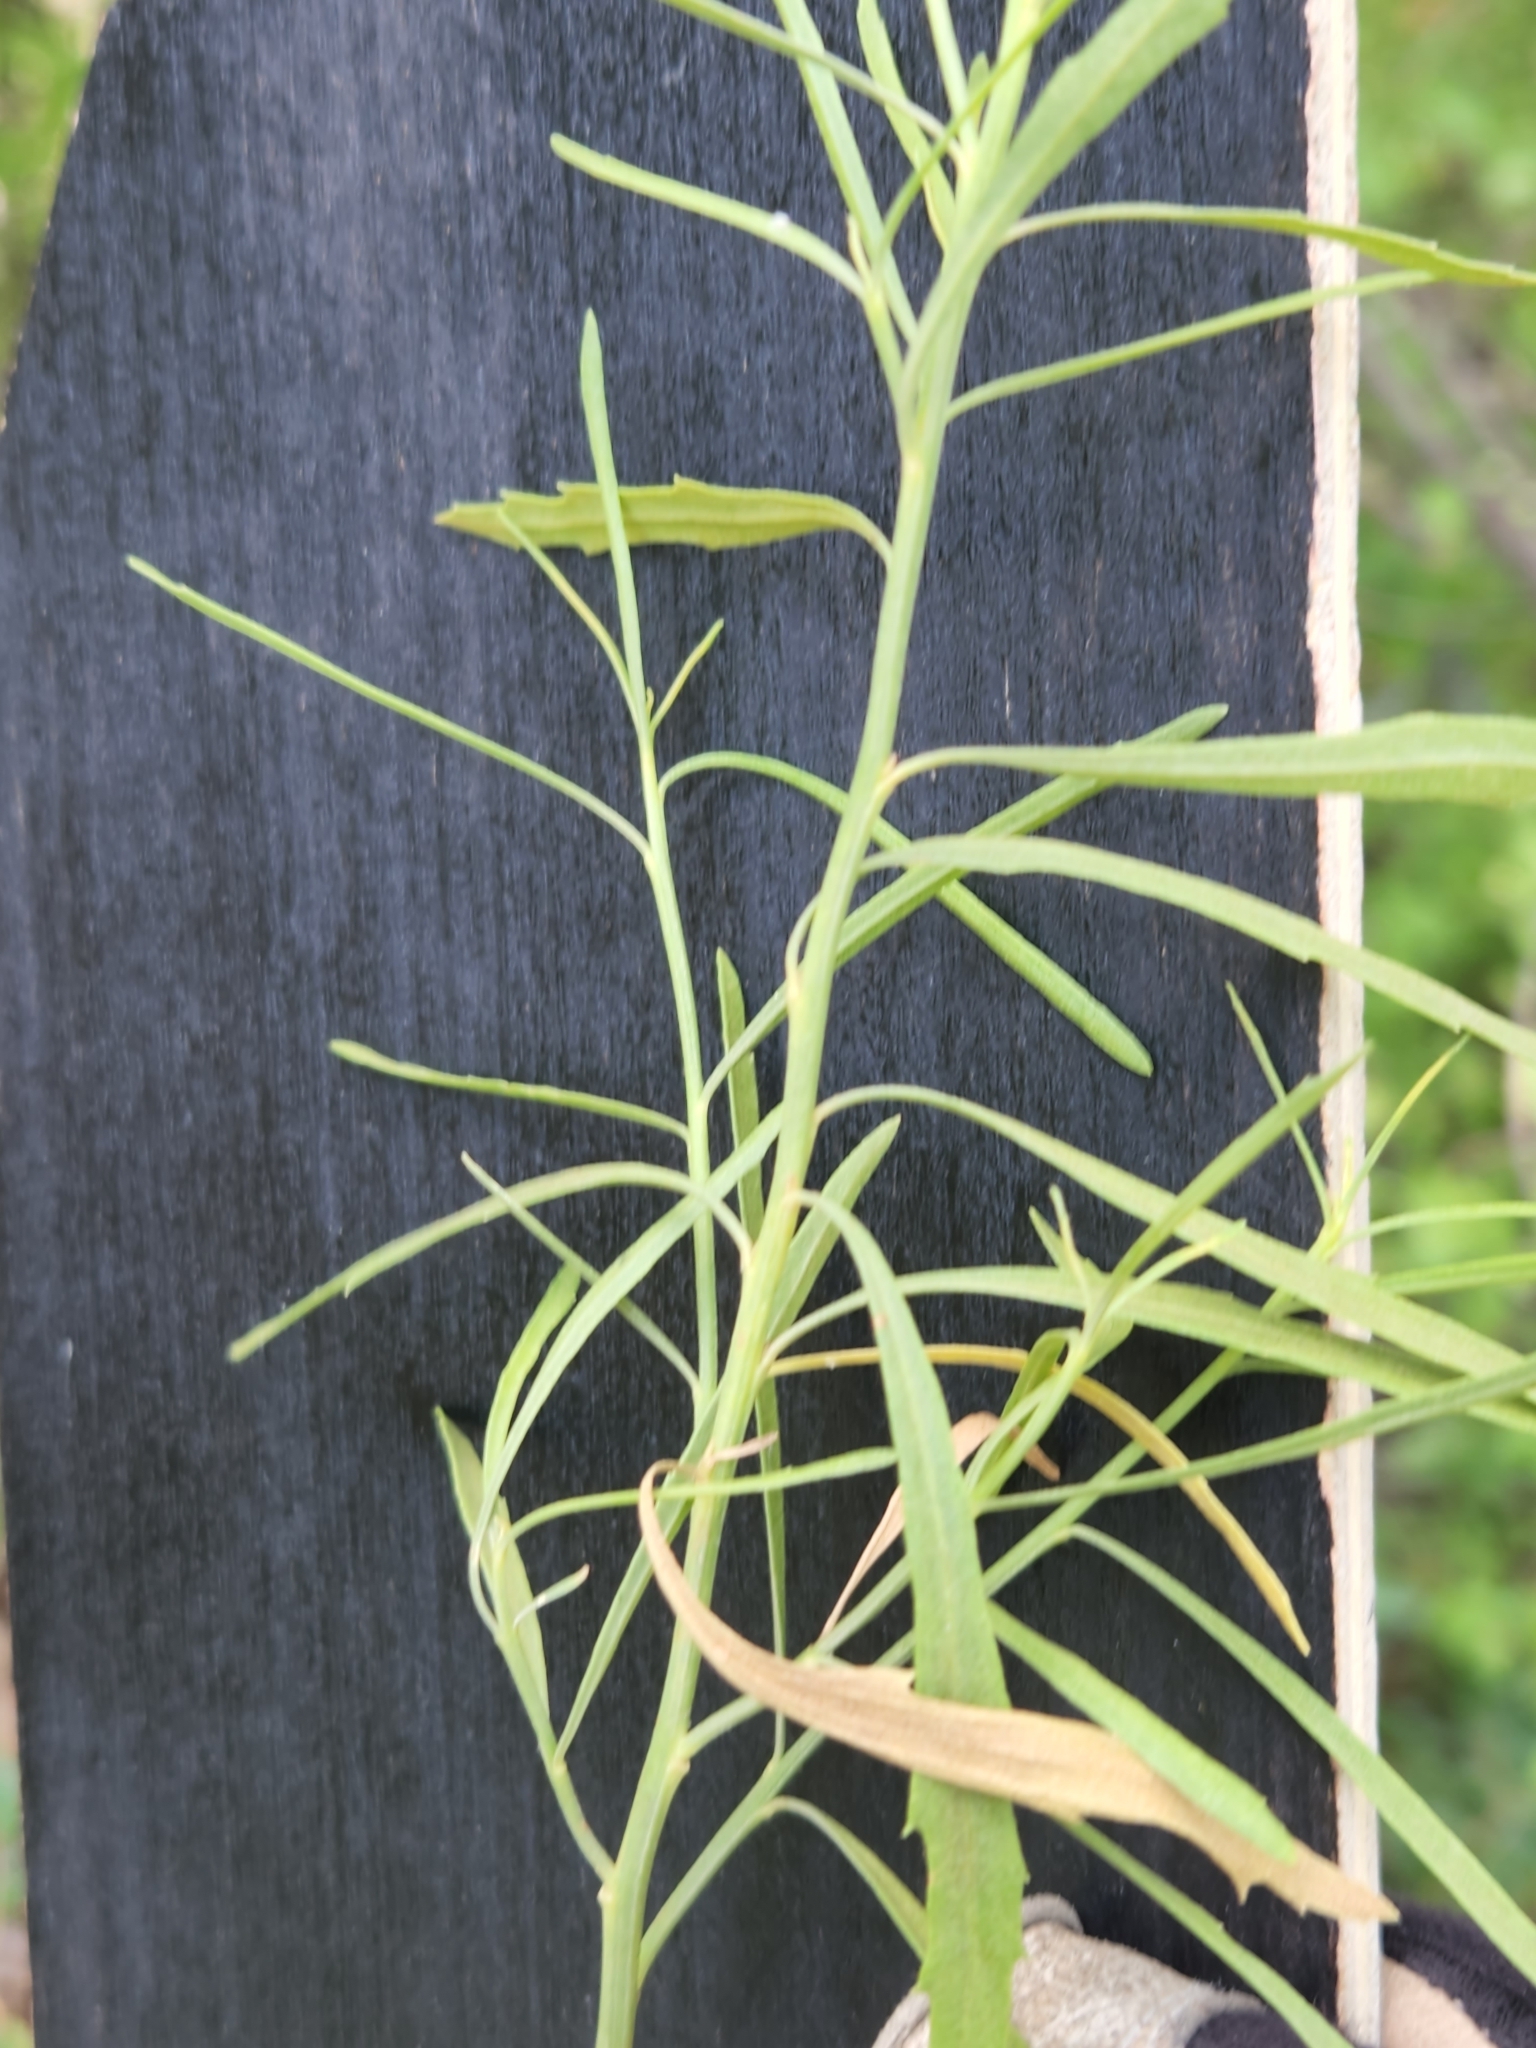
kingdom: Plantae
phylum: Tracheophyta
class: Magnoliopsida
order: Asterales
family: Asteraceae
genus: Baccharis
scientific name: Baccharis neglecta
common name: Roosevelt-weed
